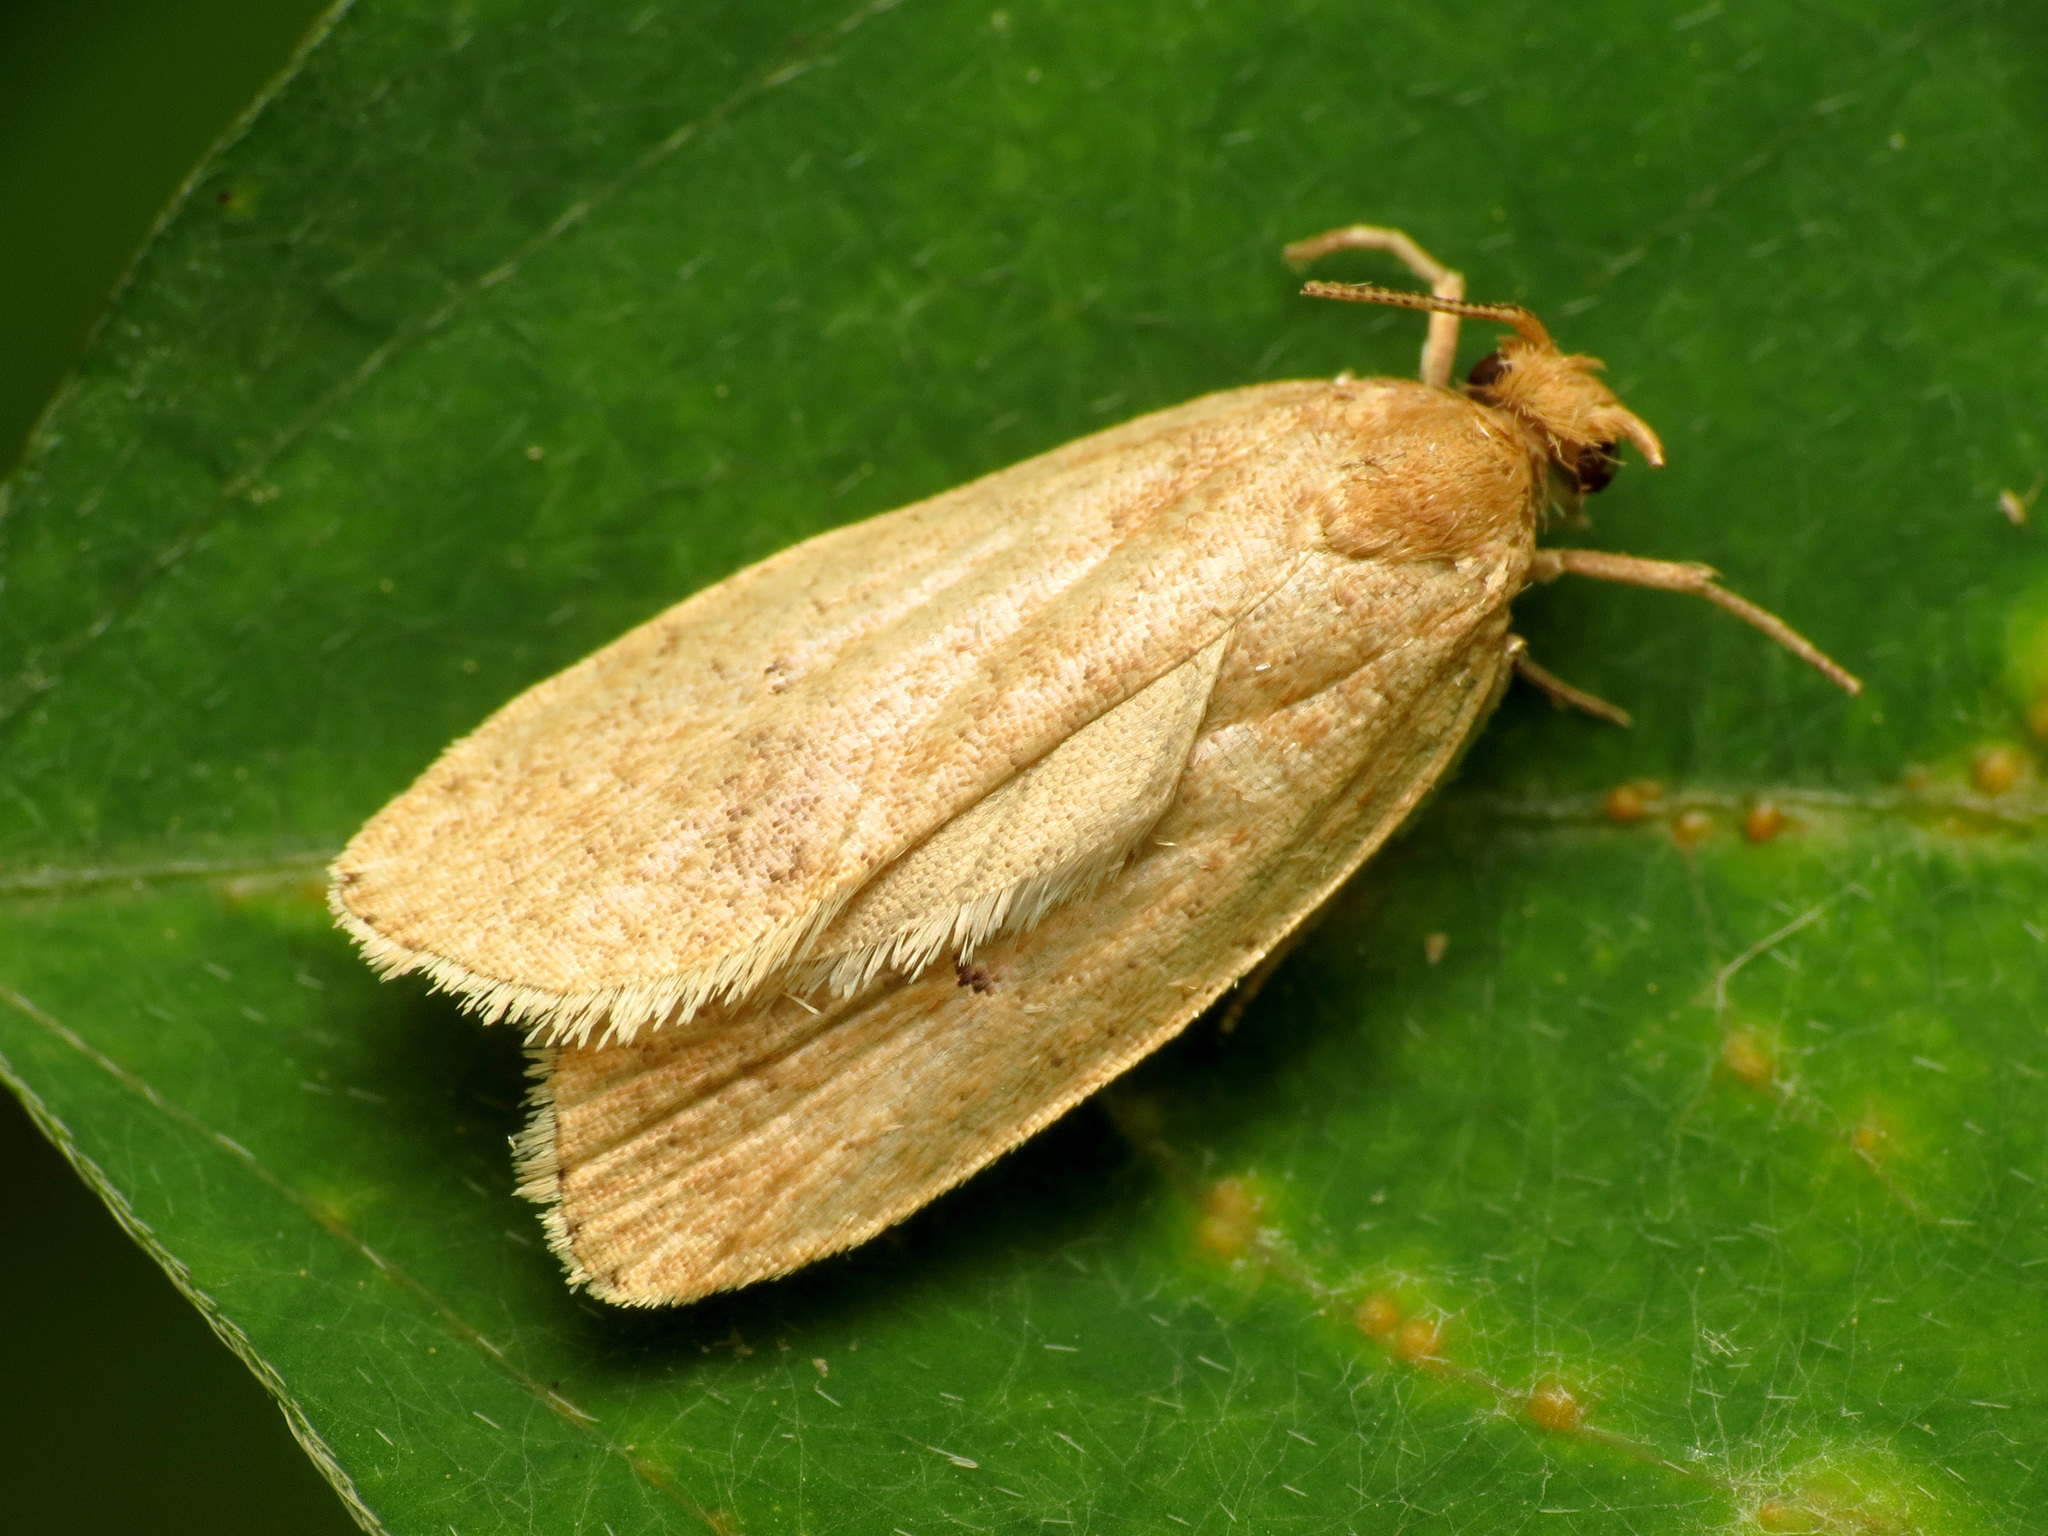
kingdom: Animalia
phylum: Arthropoda
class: Insecta
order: Lepidoptera
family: Depressariidae
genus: Psilocorsis
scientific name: Psilocorsis reflexella
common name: Dotted leaftier moth
